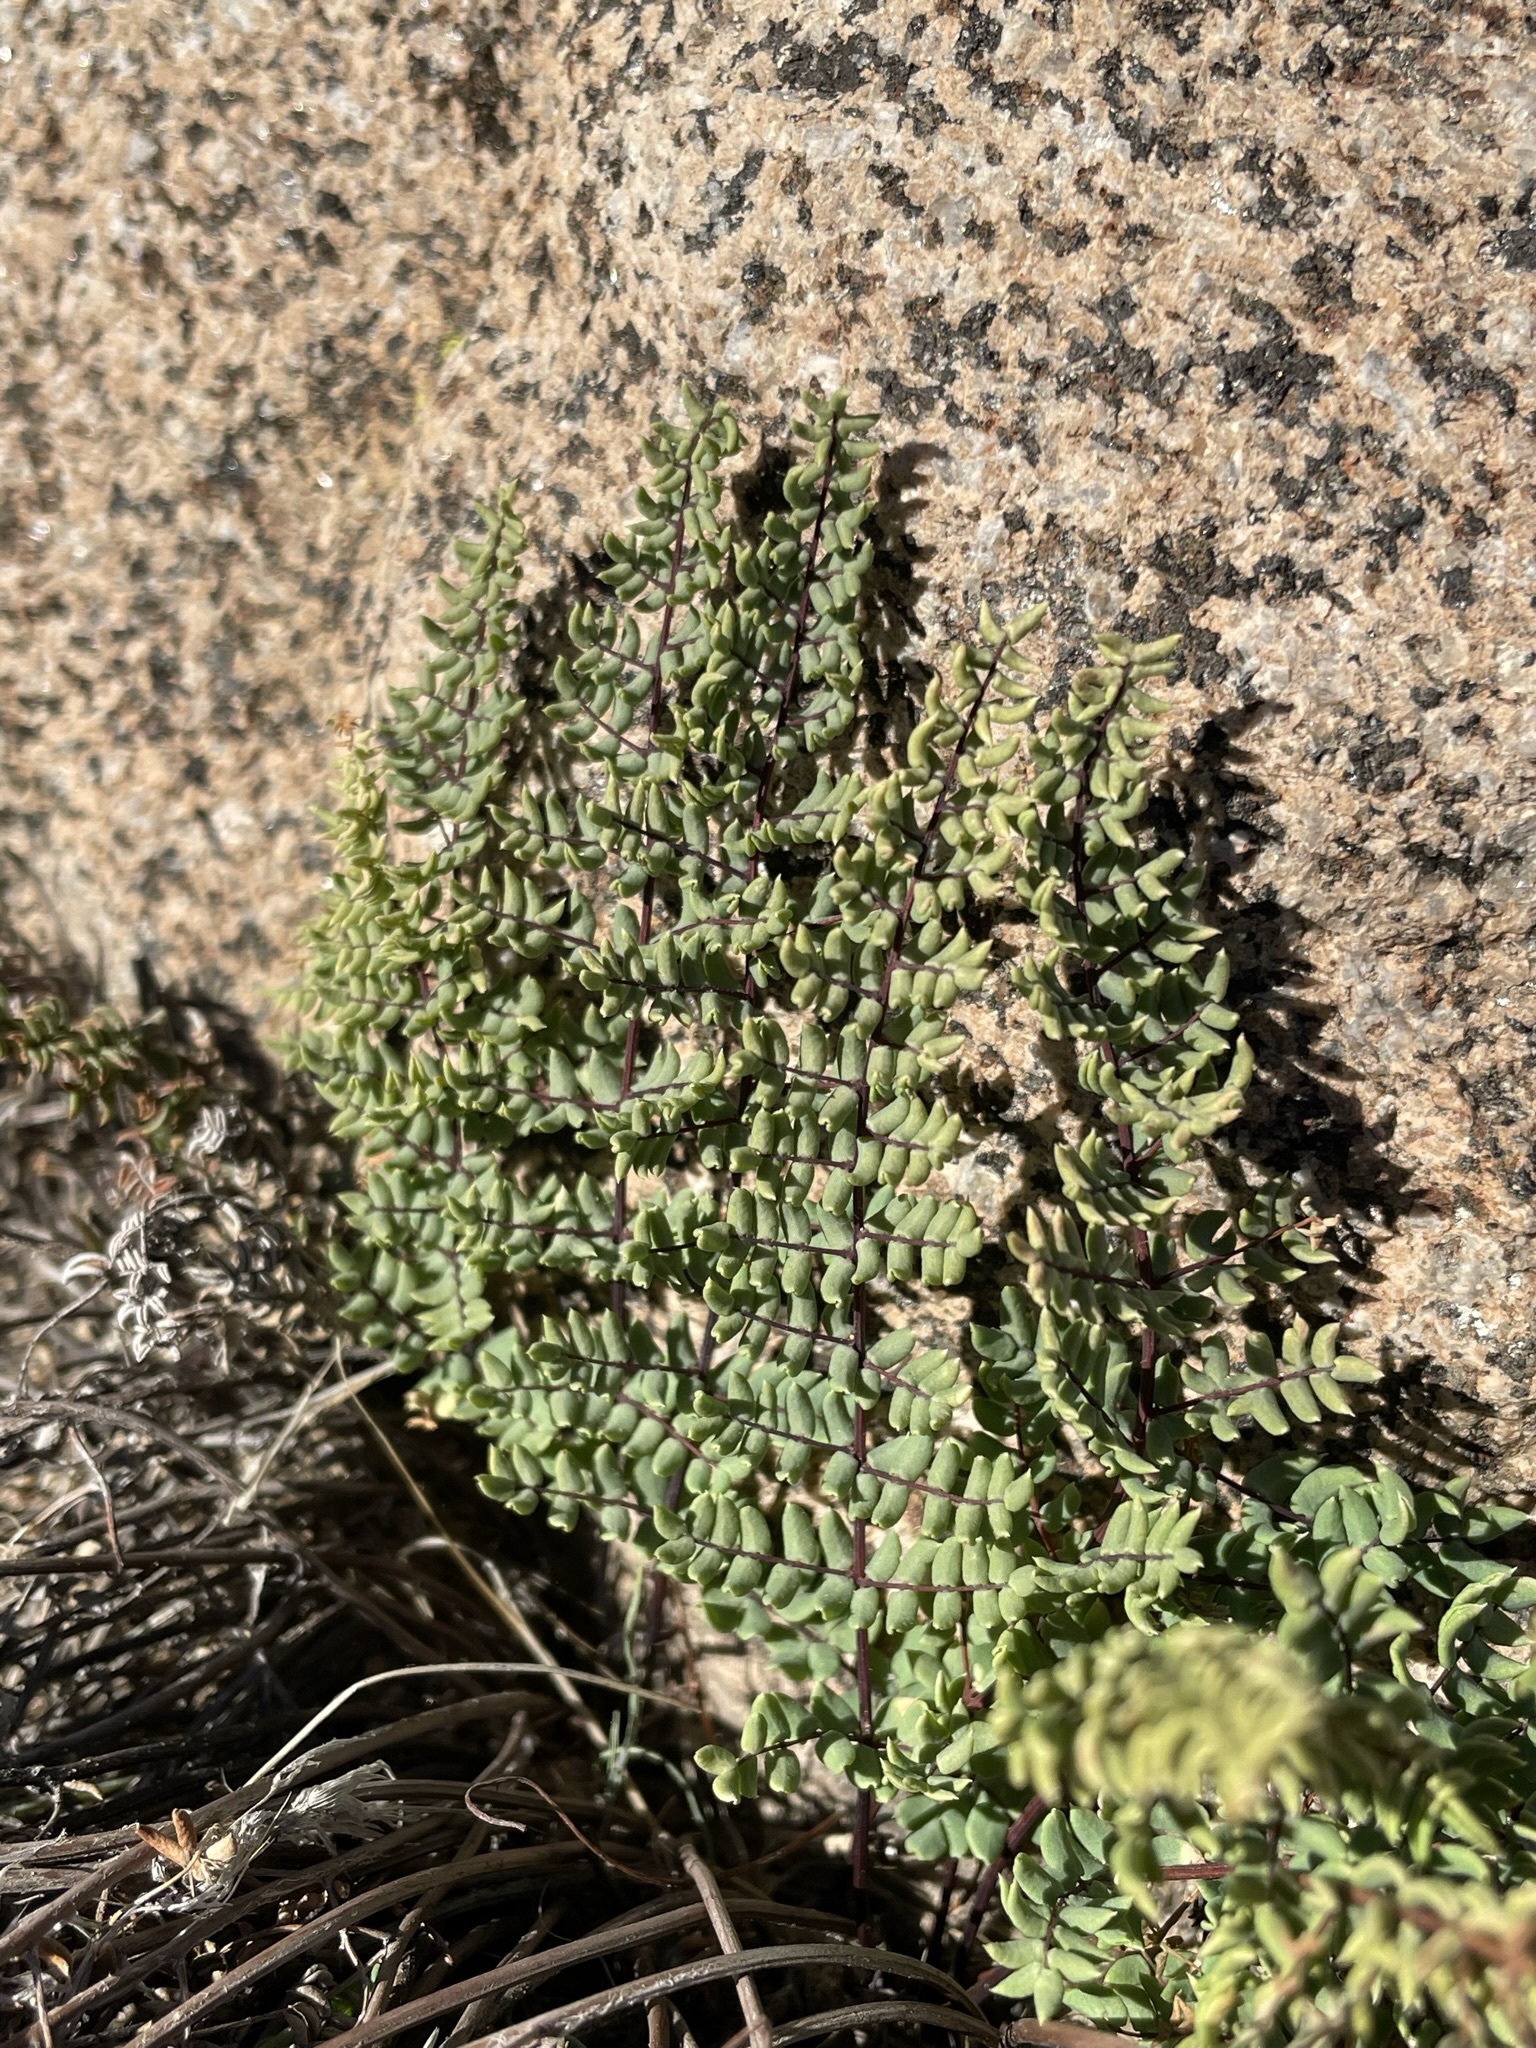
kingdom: Plantae
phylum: Tracheophyta
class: Polypodiopsida
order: Polypodiales
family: Pteridaceae
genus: Pellaea
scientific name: Pellaea mucronata
